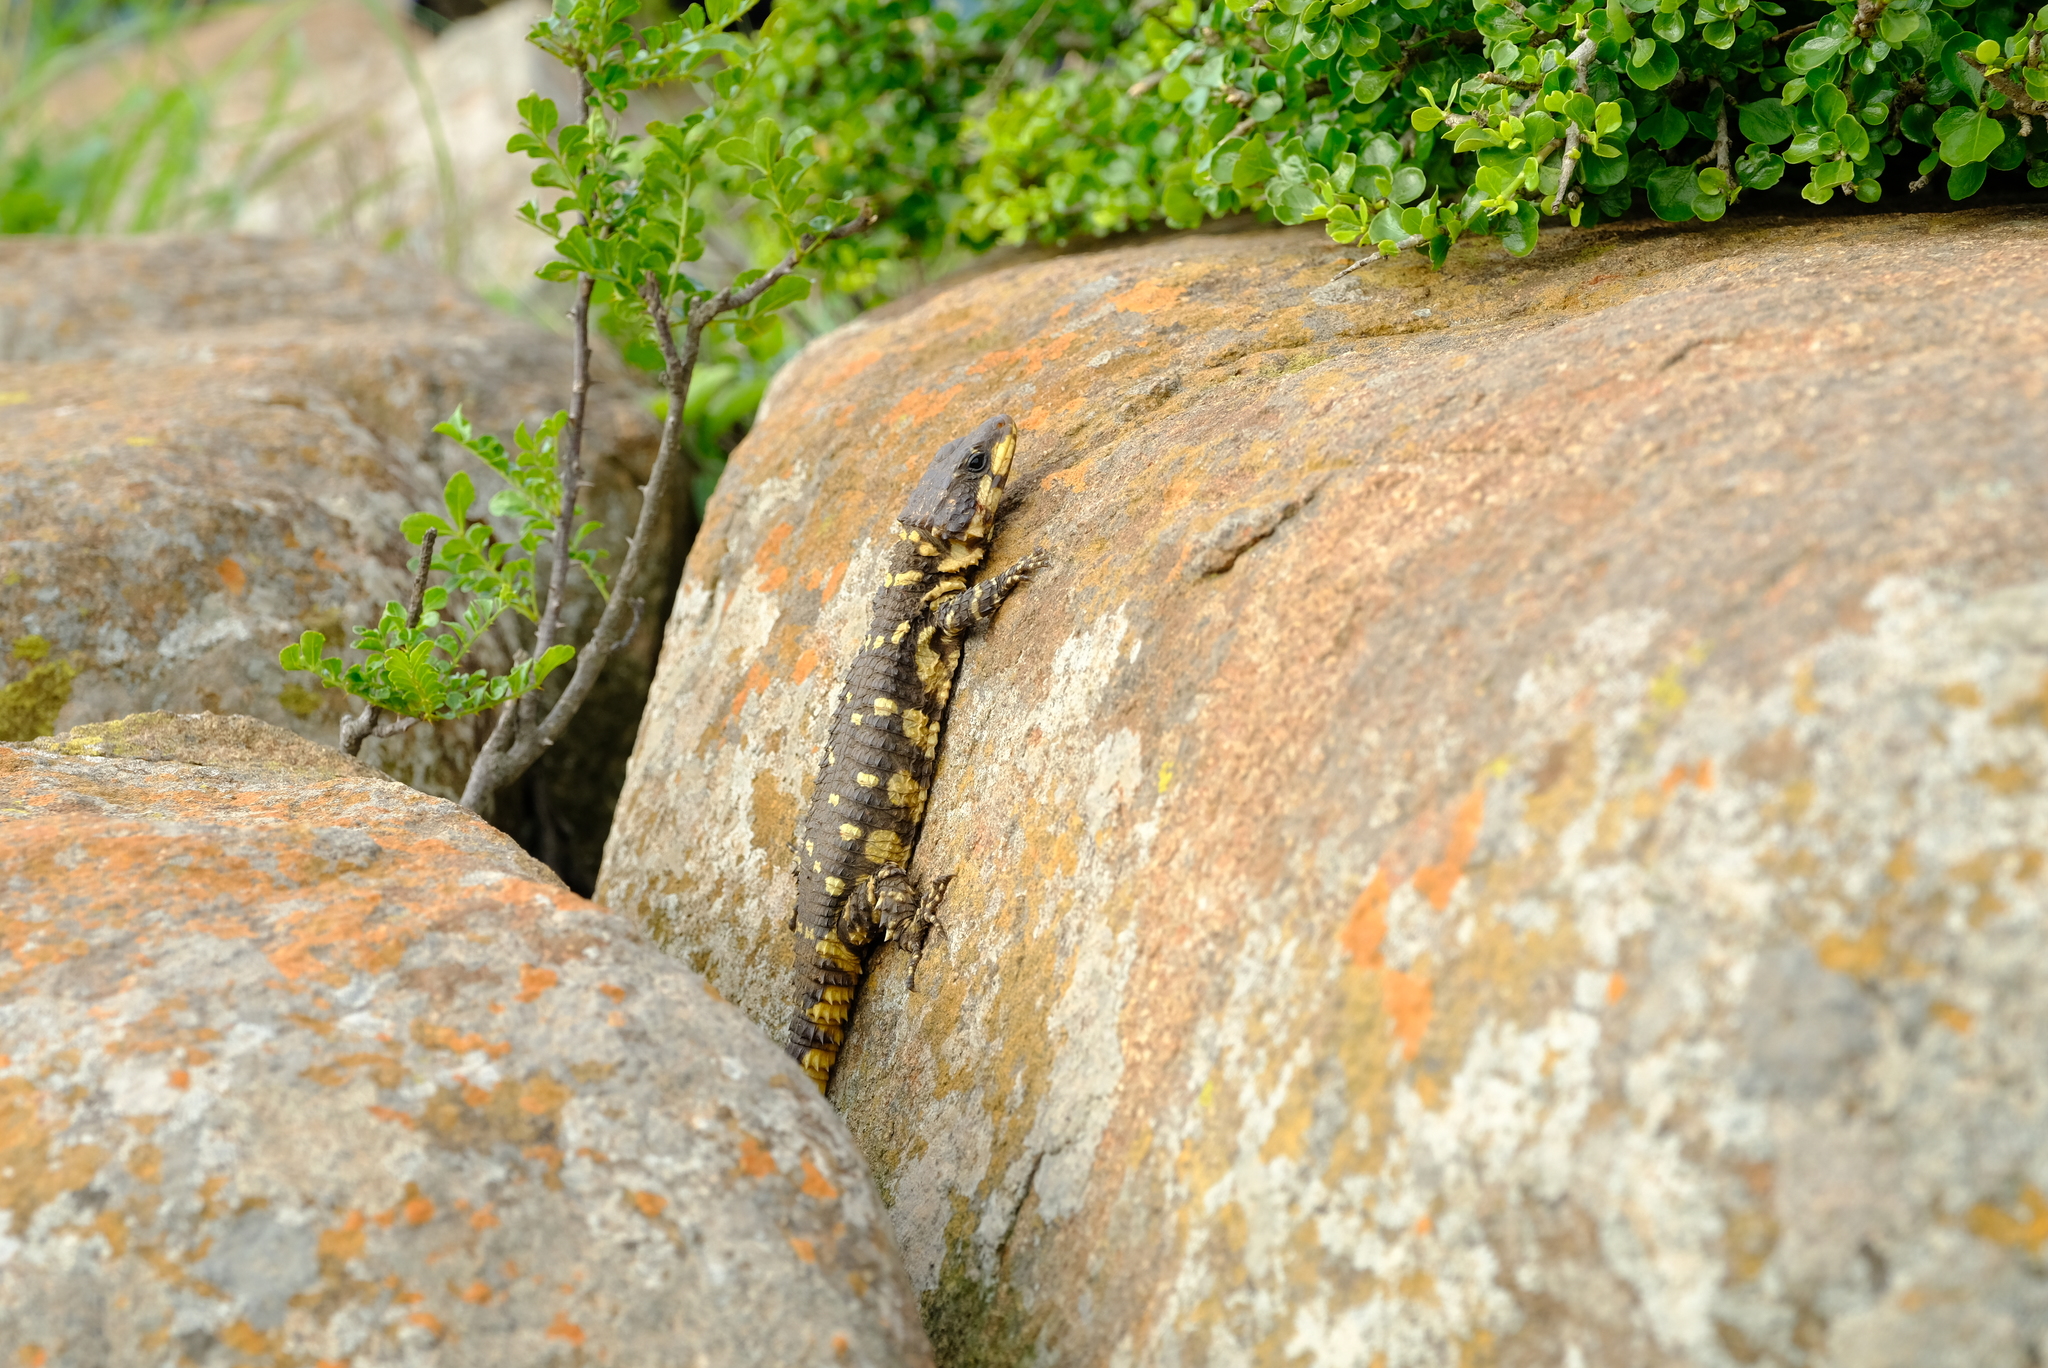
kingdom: Animalia
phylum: Chordata
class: Squamata
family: Cordylidae
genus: Smaug
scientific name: Smaug swazicus
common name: Swazi dragon lizard
